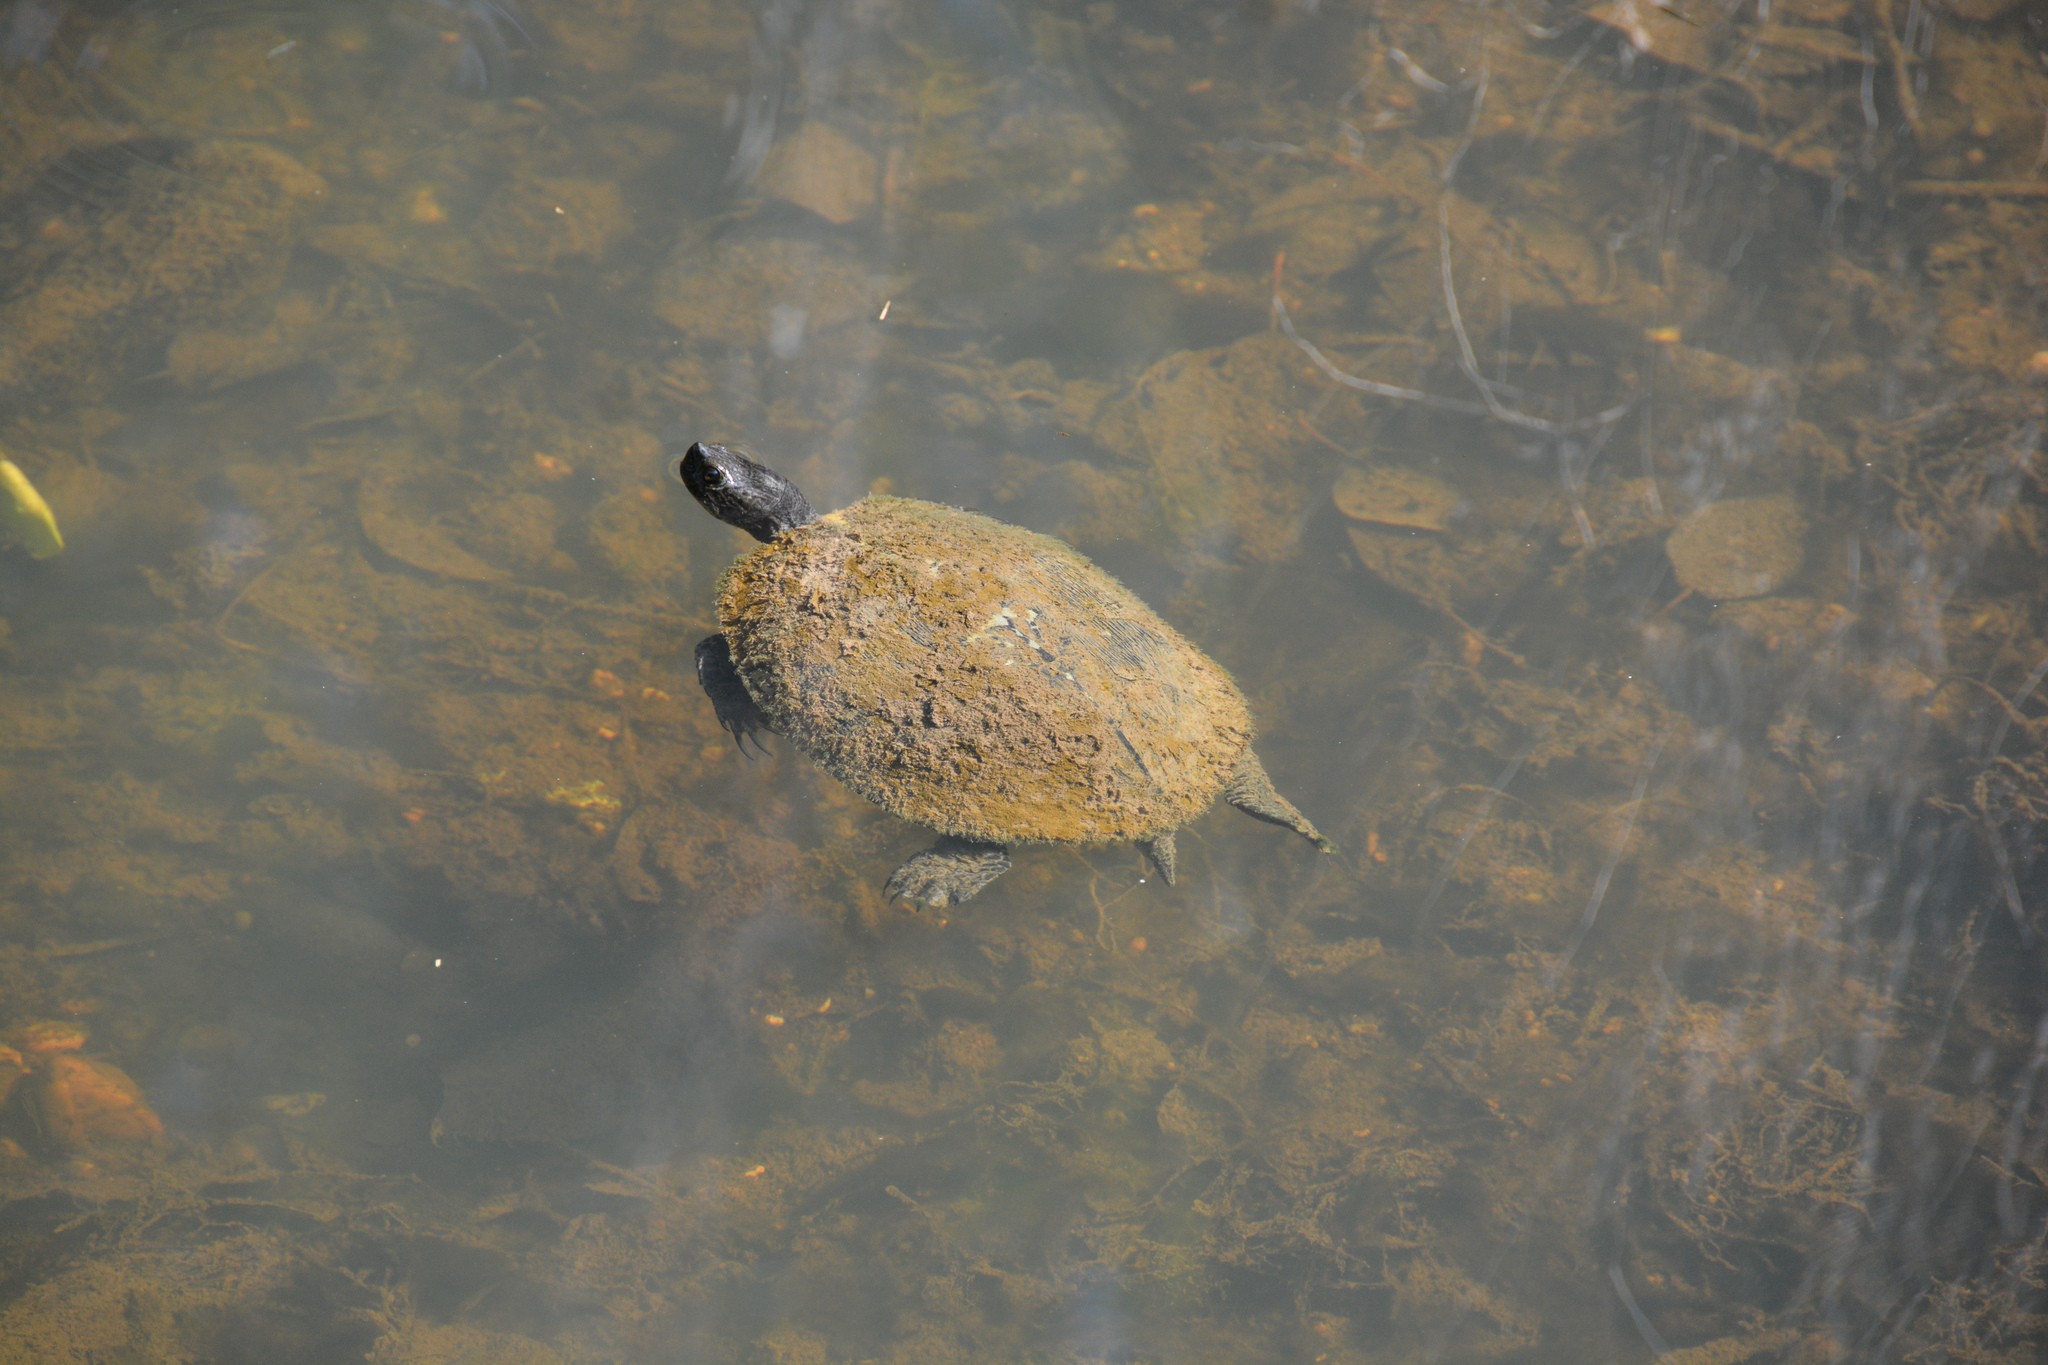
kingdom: Animalia
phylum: Chordata
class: Testudines
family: Emydidae
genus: Pseudemys
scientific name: Pseudemys concinna
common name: Eastern river cooter
